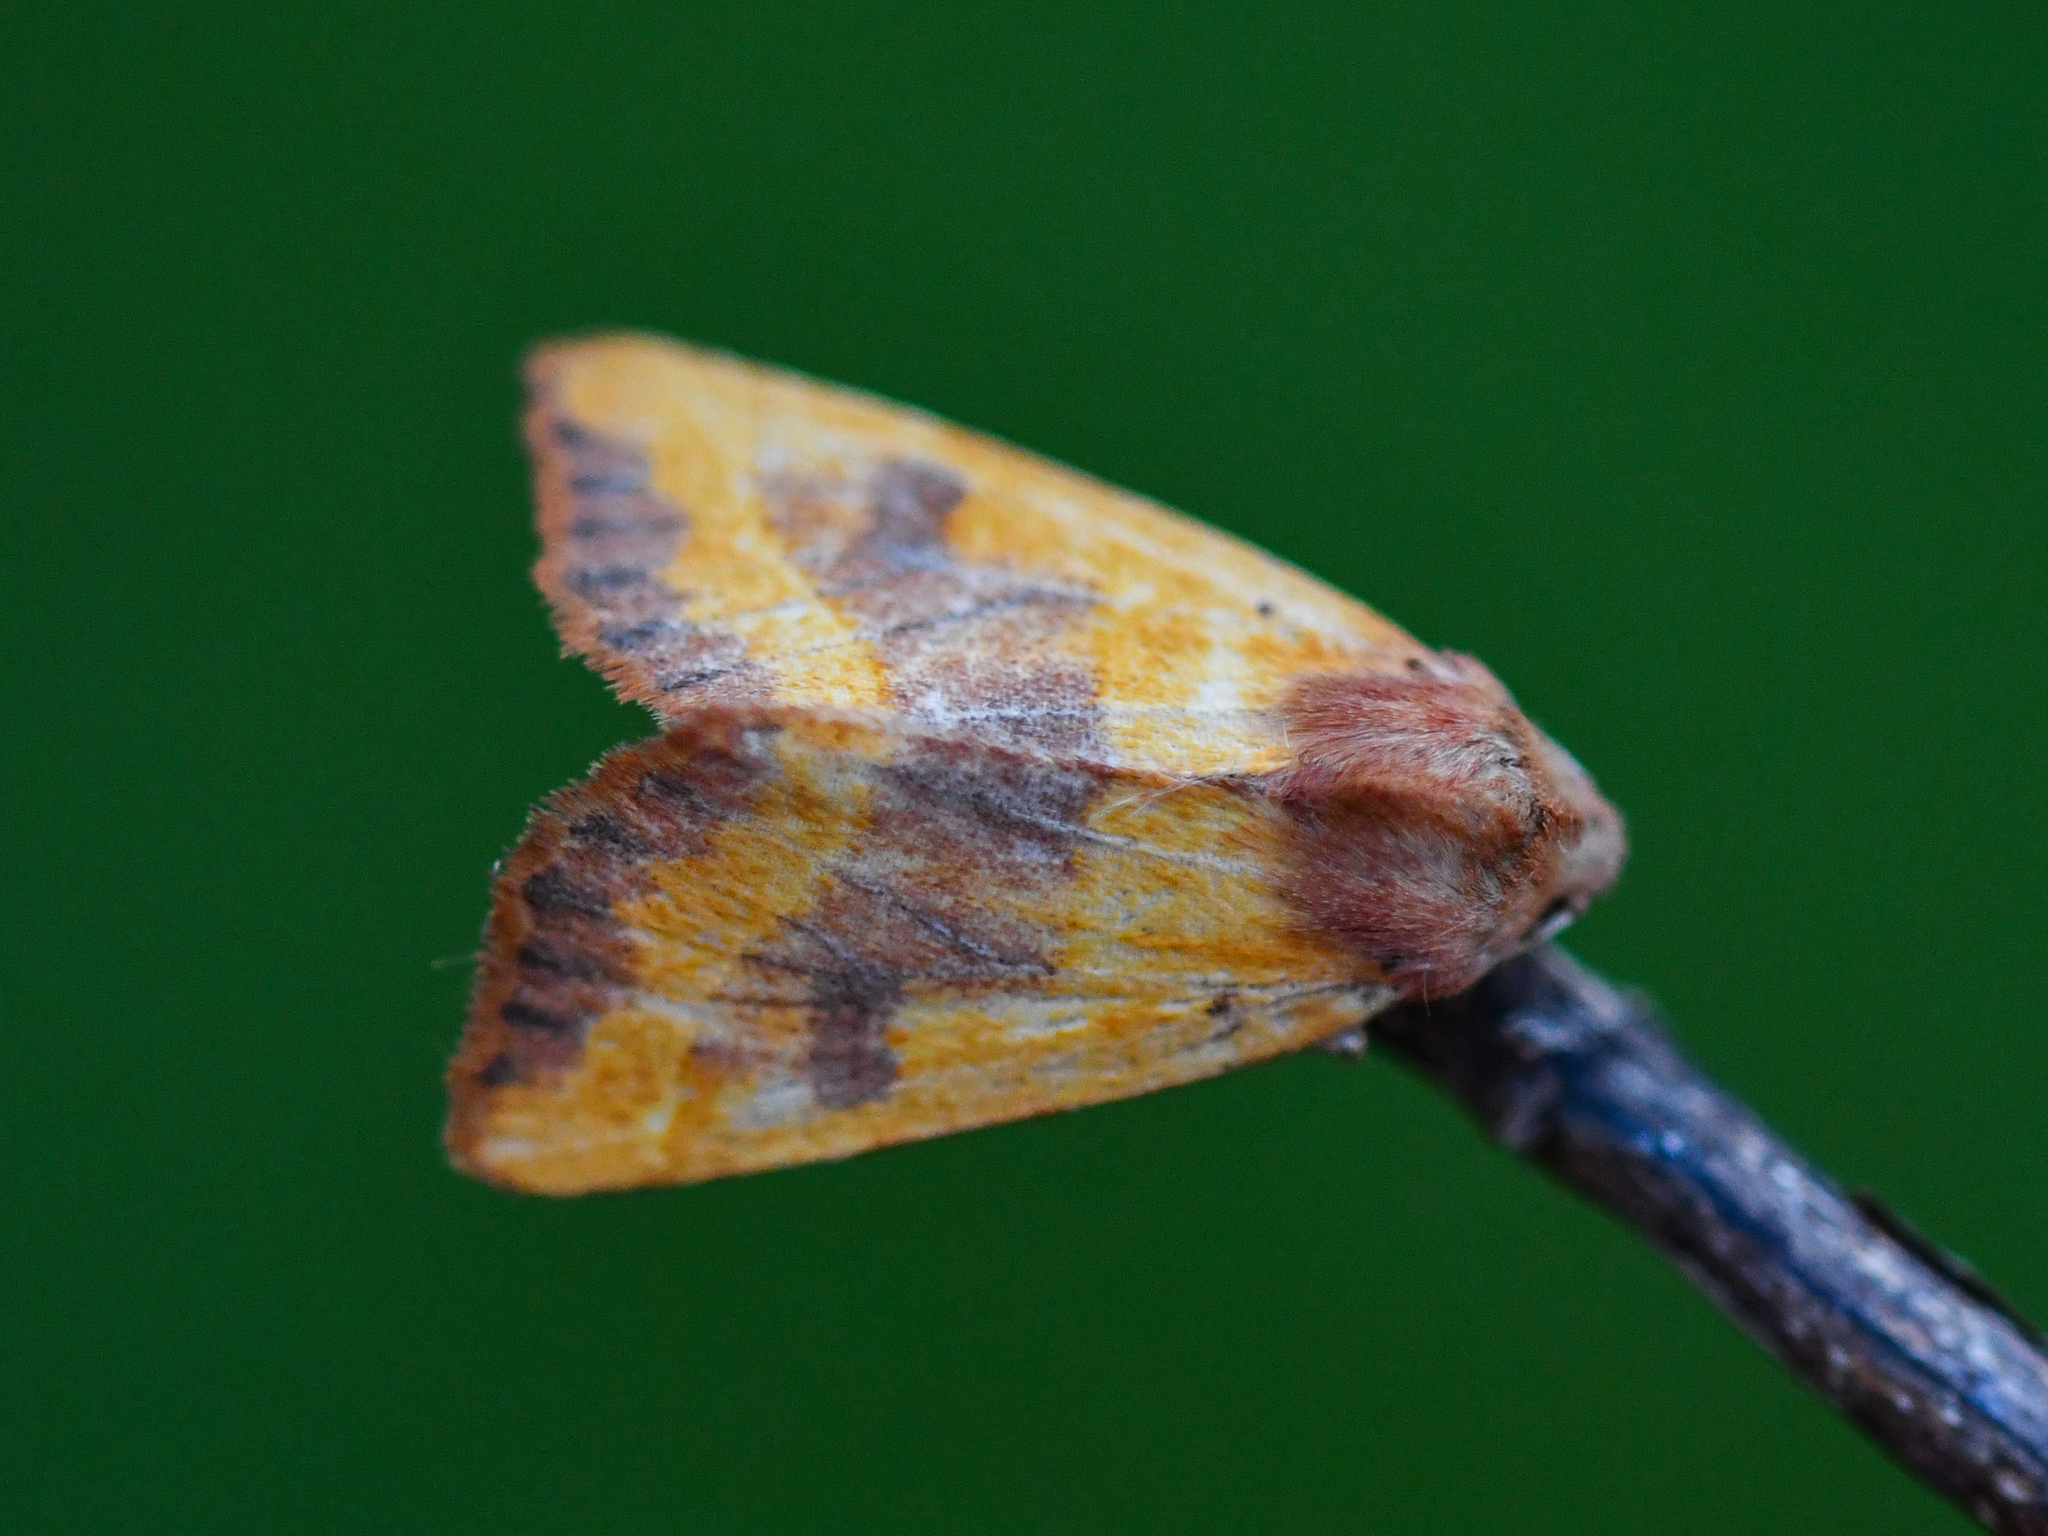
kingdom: Animalia
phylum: Arthropoda
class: Insecta
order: Lepidoptera
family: Noctuidae
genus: Atethmia
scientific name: Atethmia centrago
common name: Centre-barred sallow
